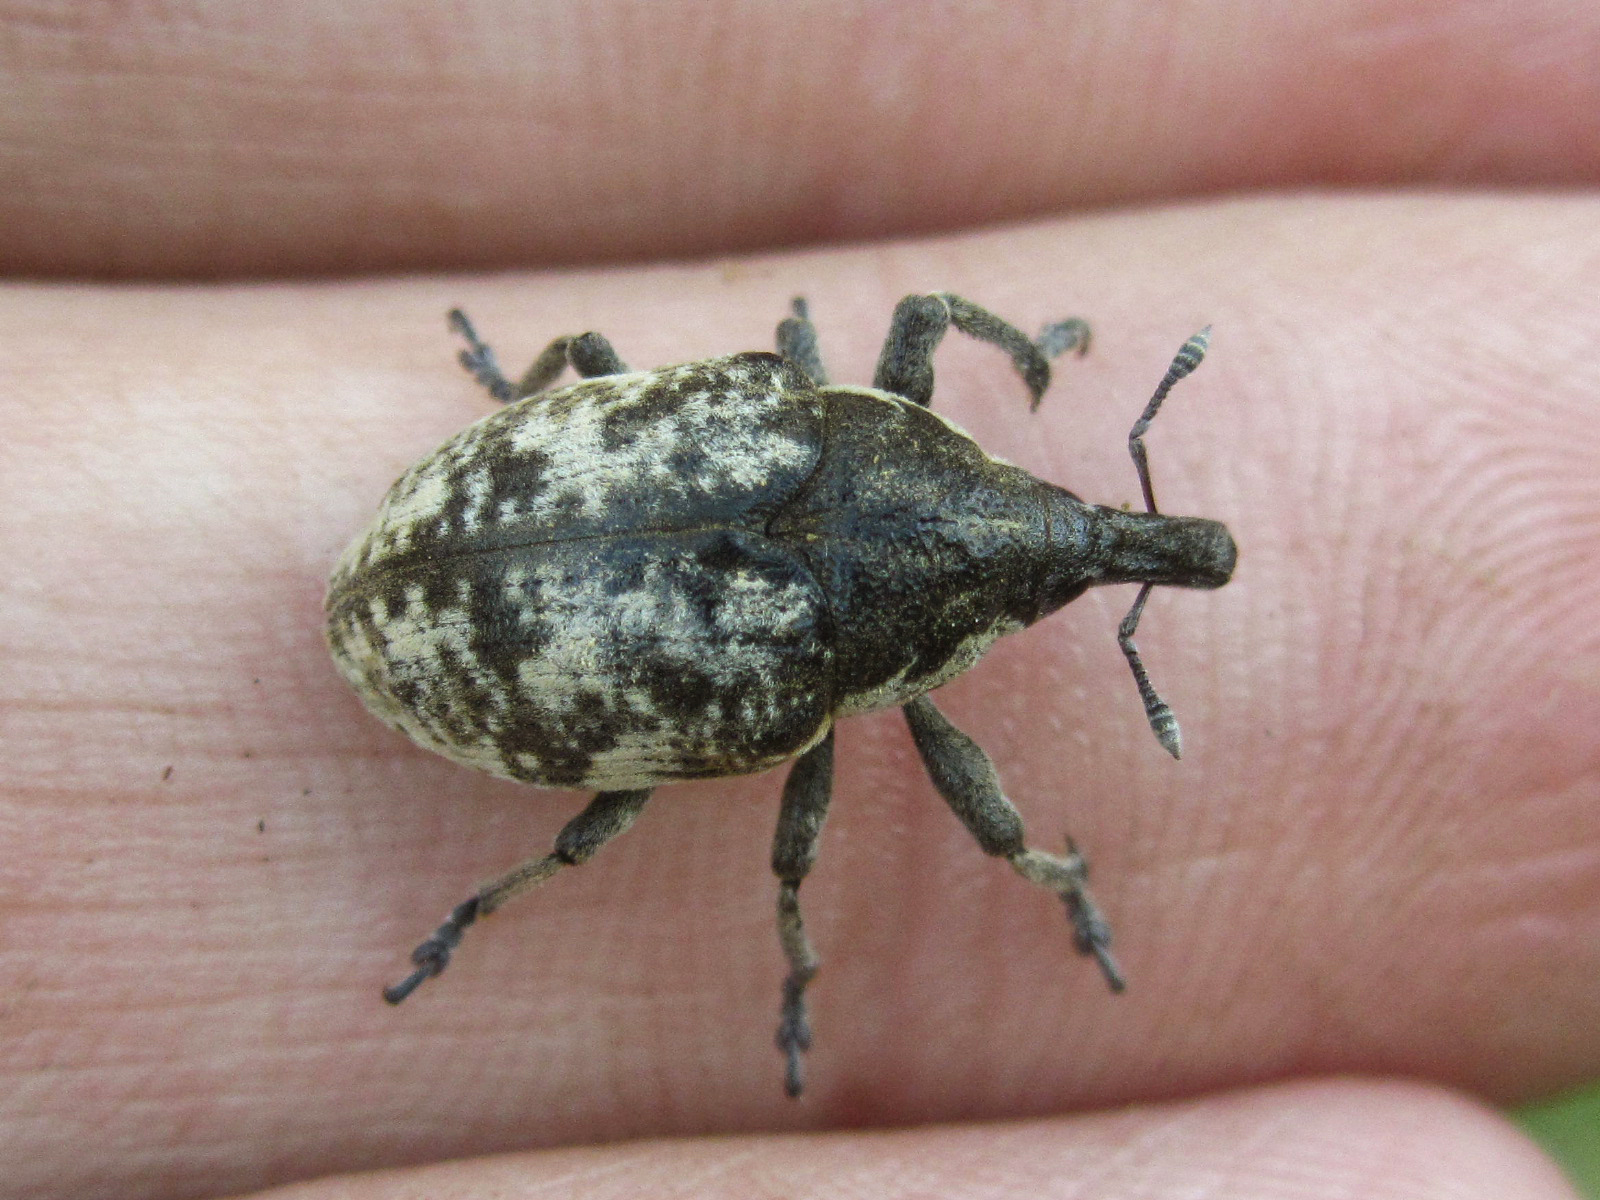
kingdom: Animalia
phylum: Arthropoda
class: Insecta
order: Coleoptera
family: Curculionidae
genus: Larinus
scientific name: Larinus vulpes
